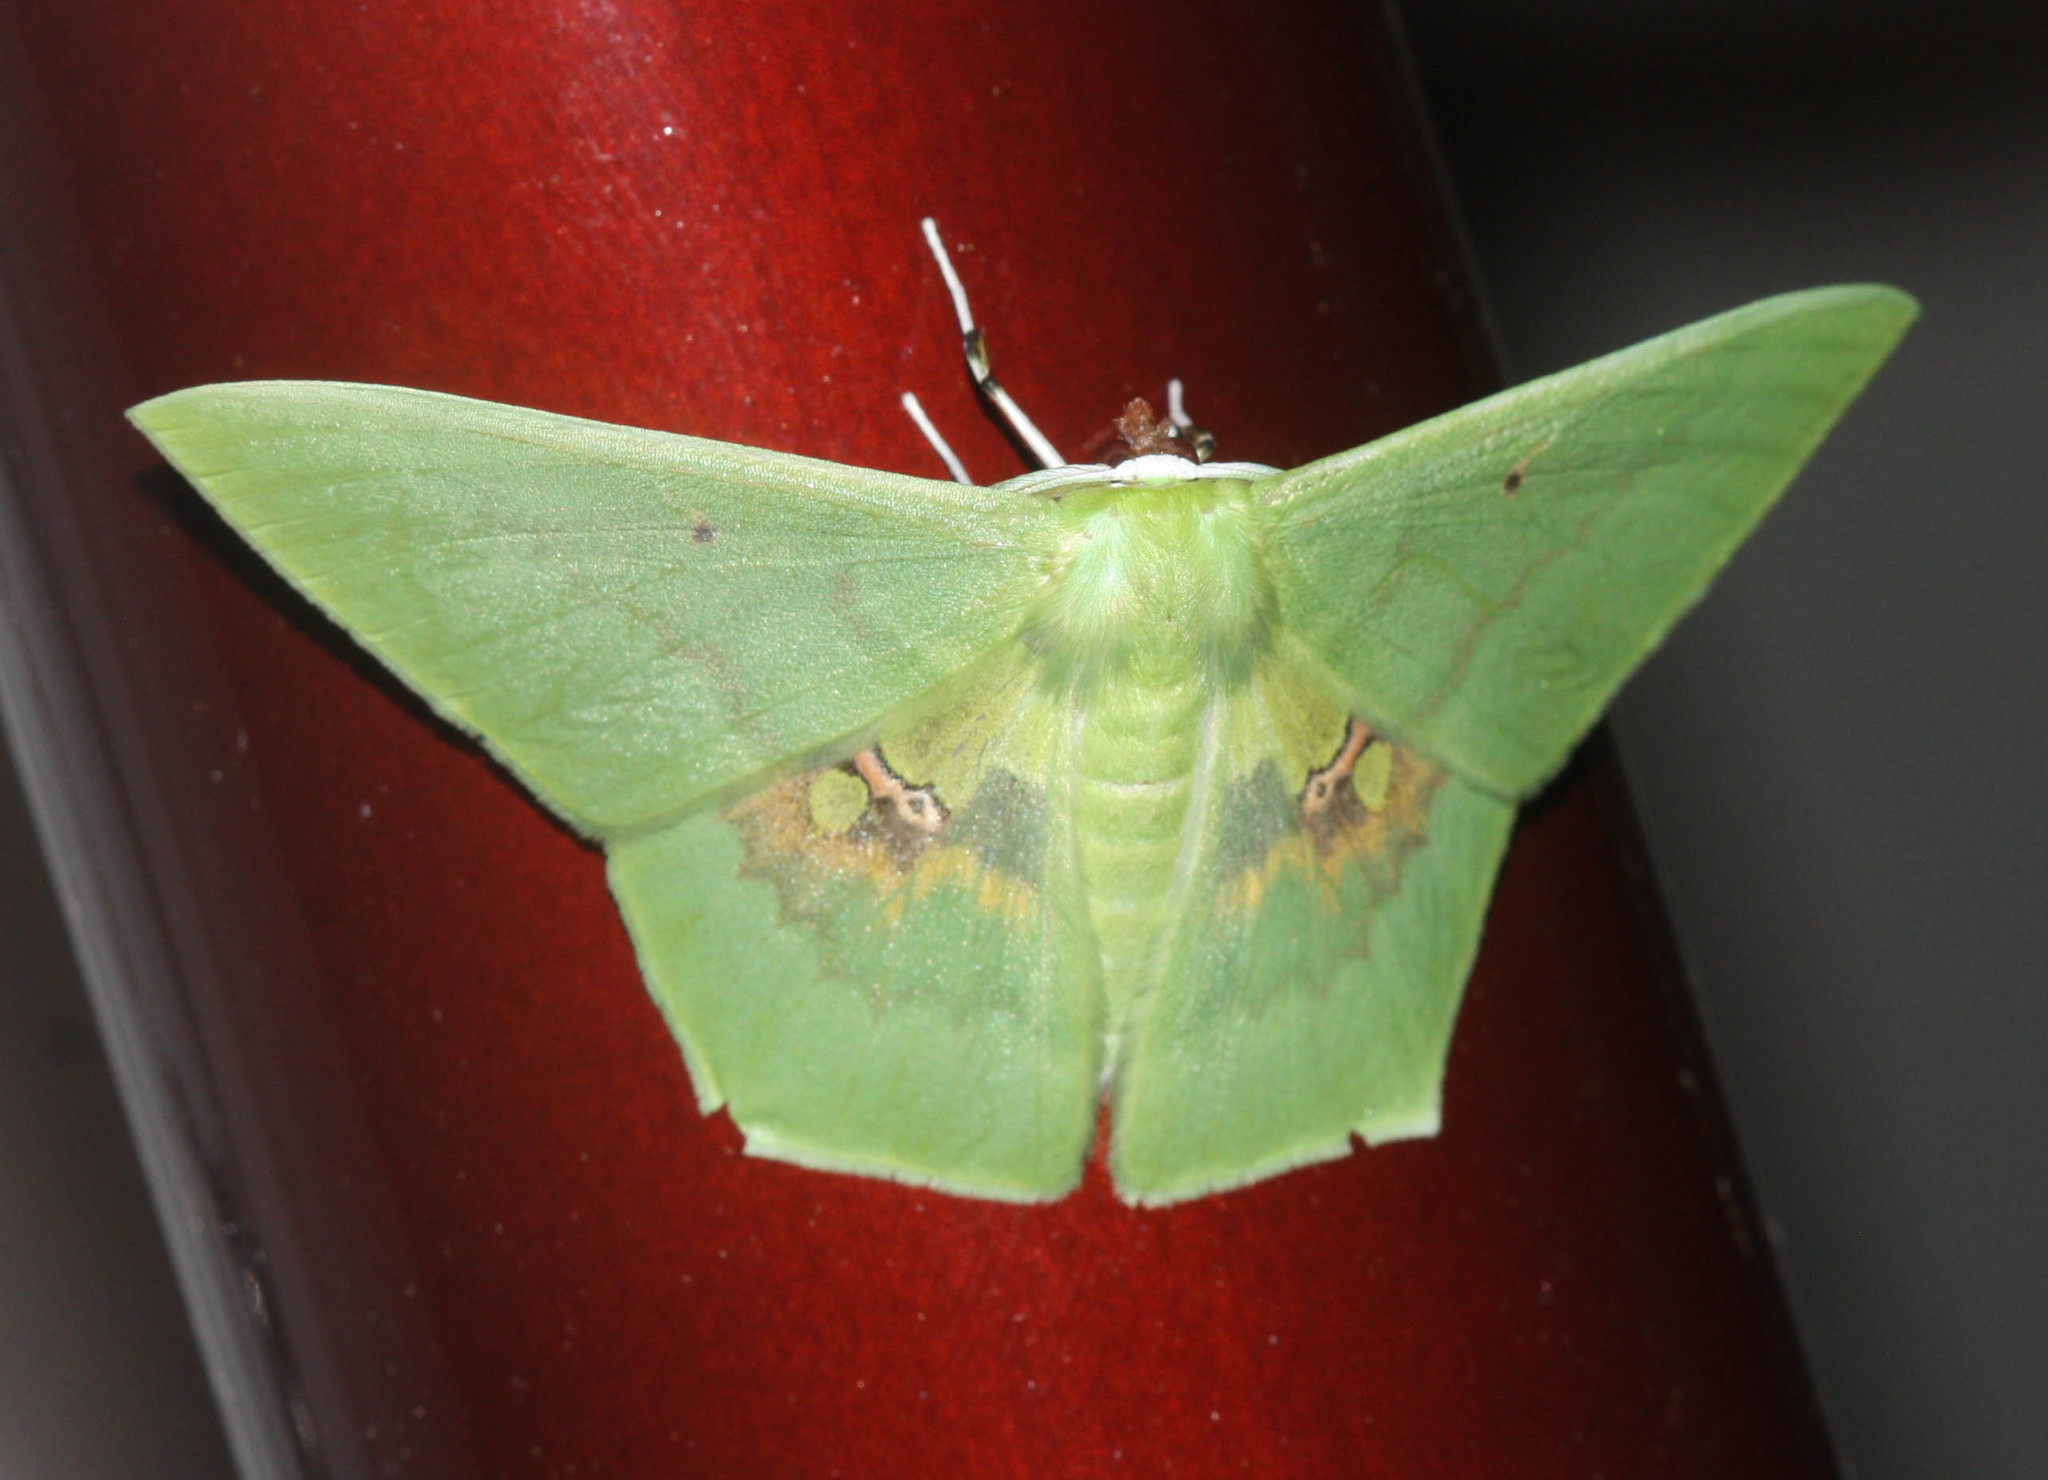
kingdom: Animalia
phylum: Arthropoda
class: Insecta
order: Lepidoptera
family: Geometridae
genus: Aporandria
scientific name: Aporandria specularia
